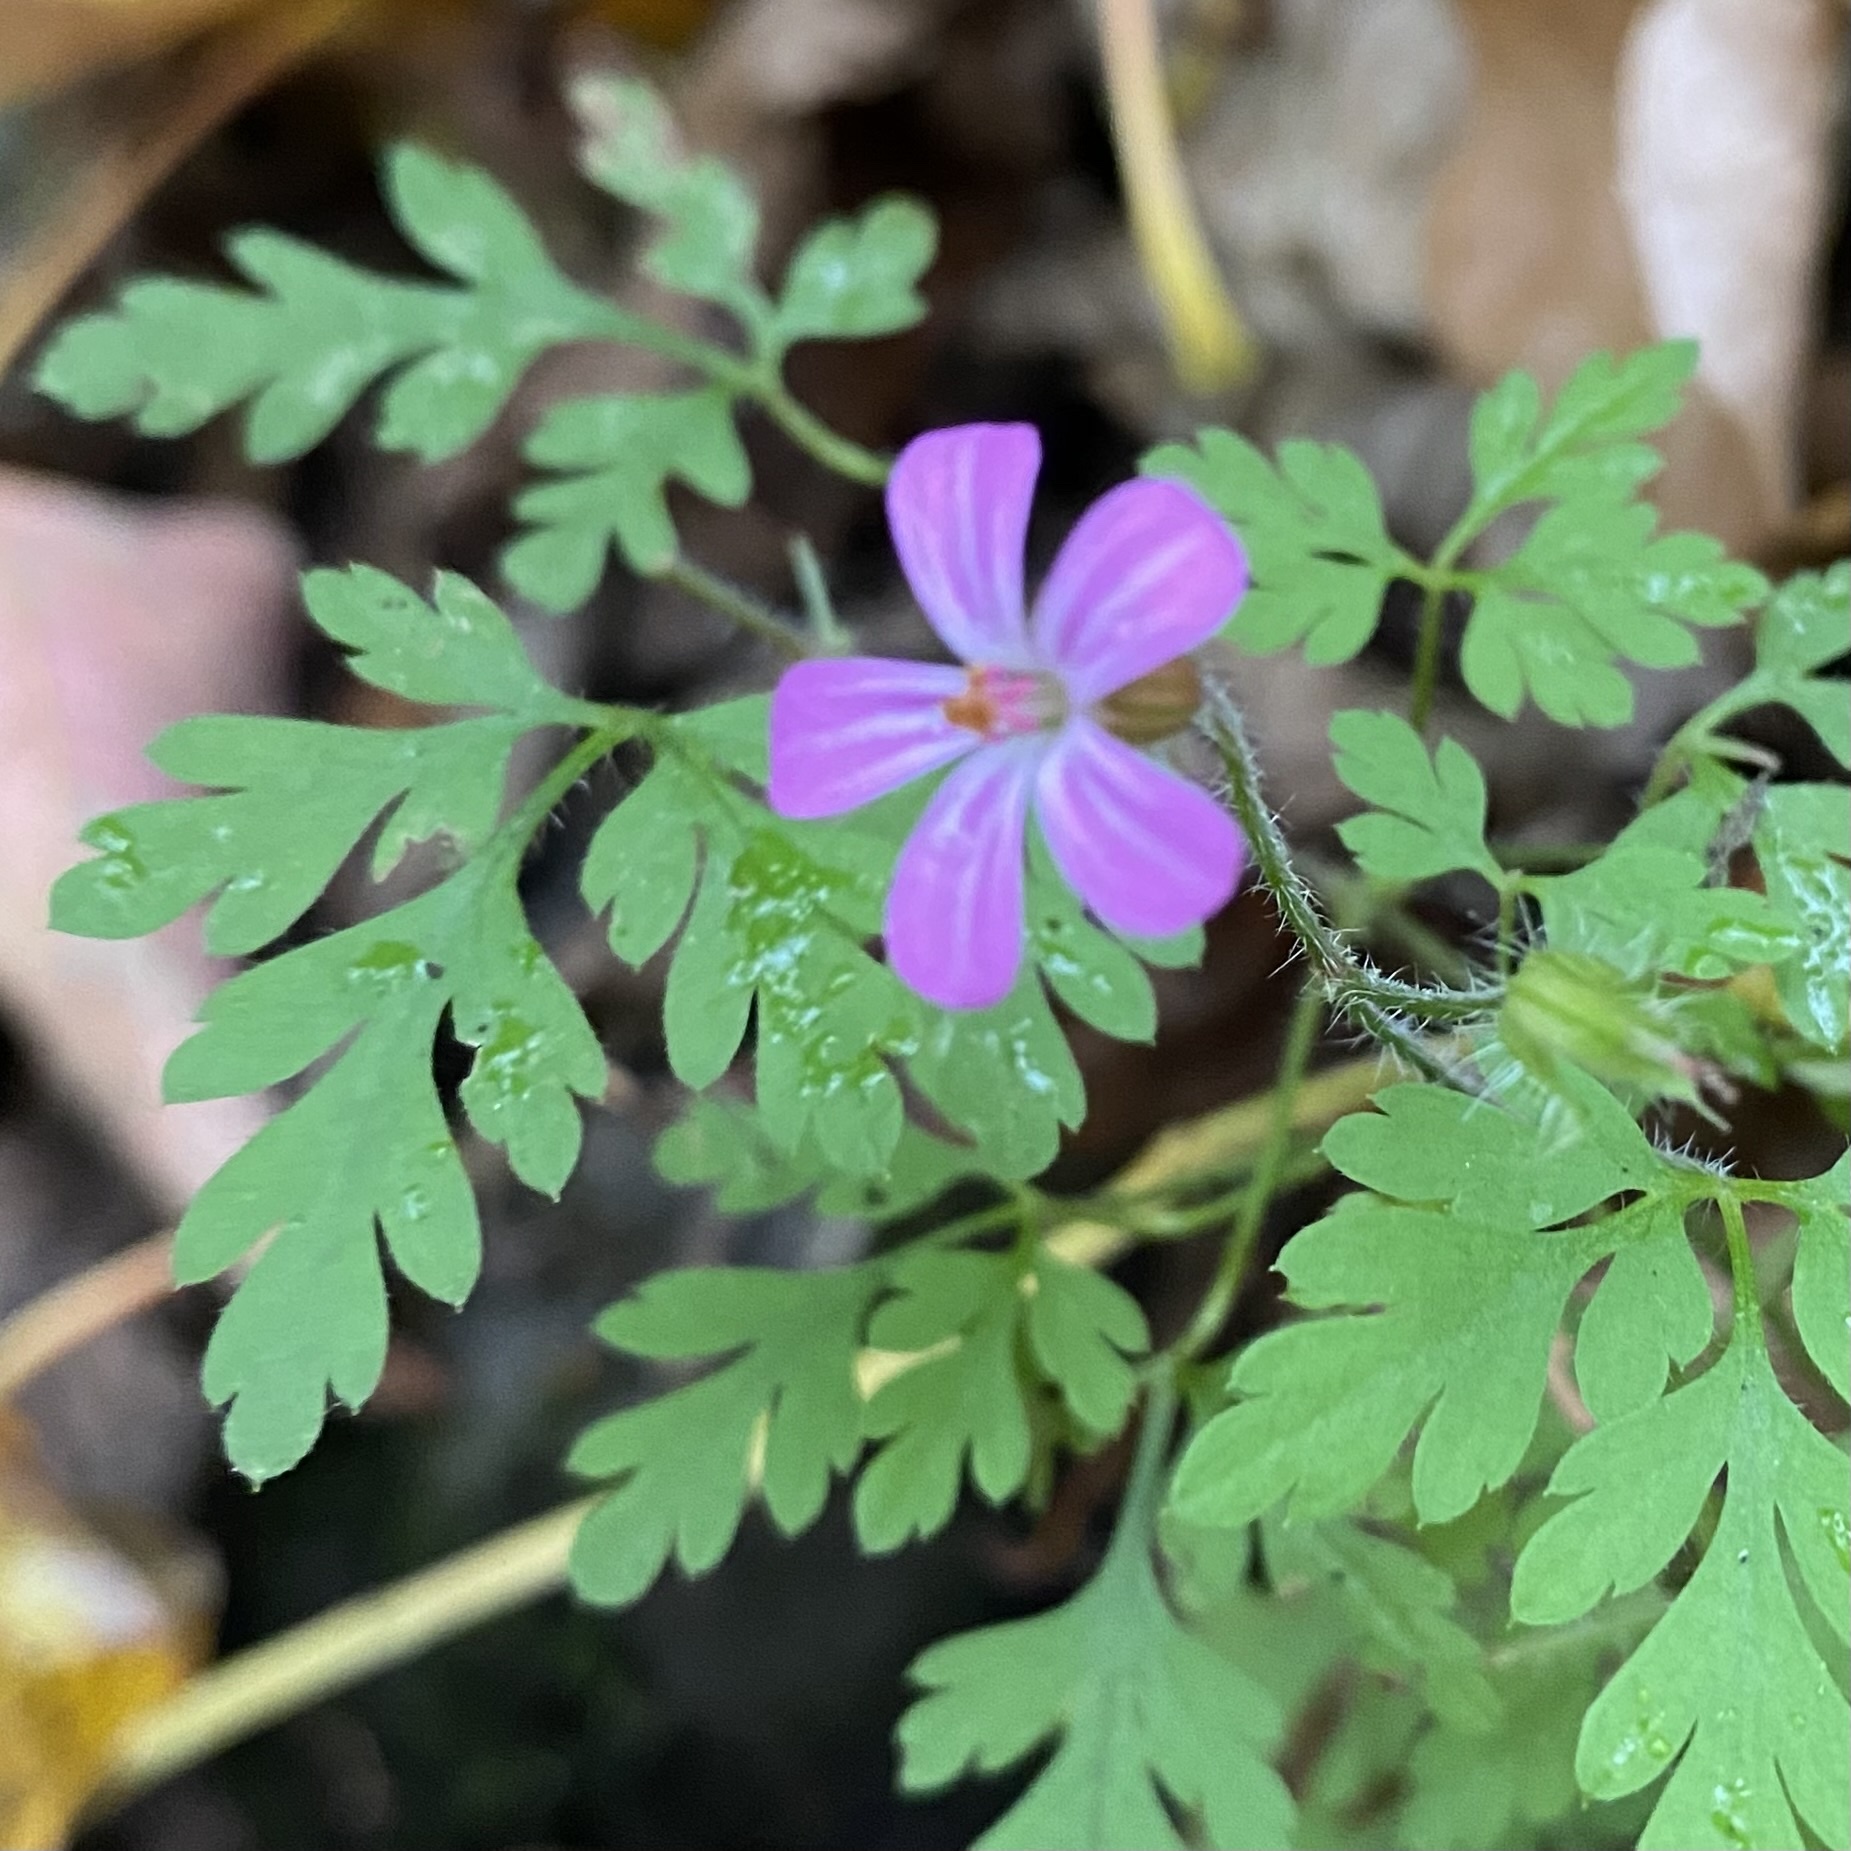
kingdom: Plantae
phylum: Tracheophyta
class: Magnoliopsida
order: Geraniales
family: Geraniaceae
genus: Geranium
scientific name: Geranium robertianum
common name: Herb-robert
